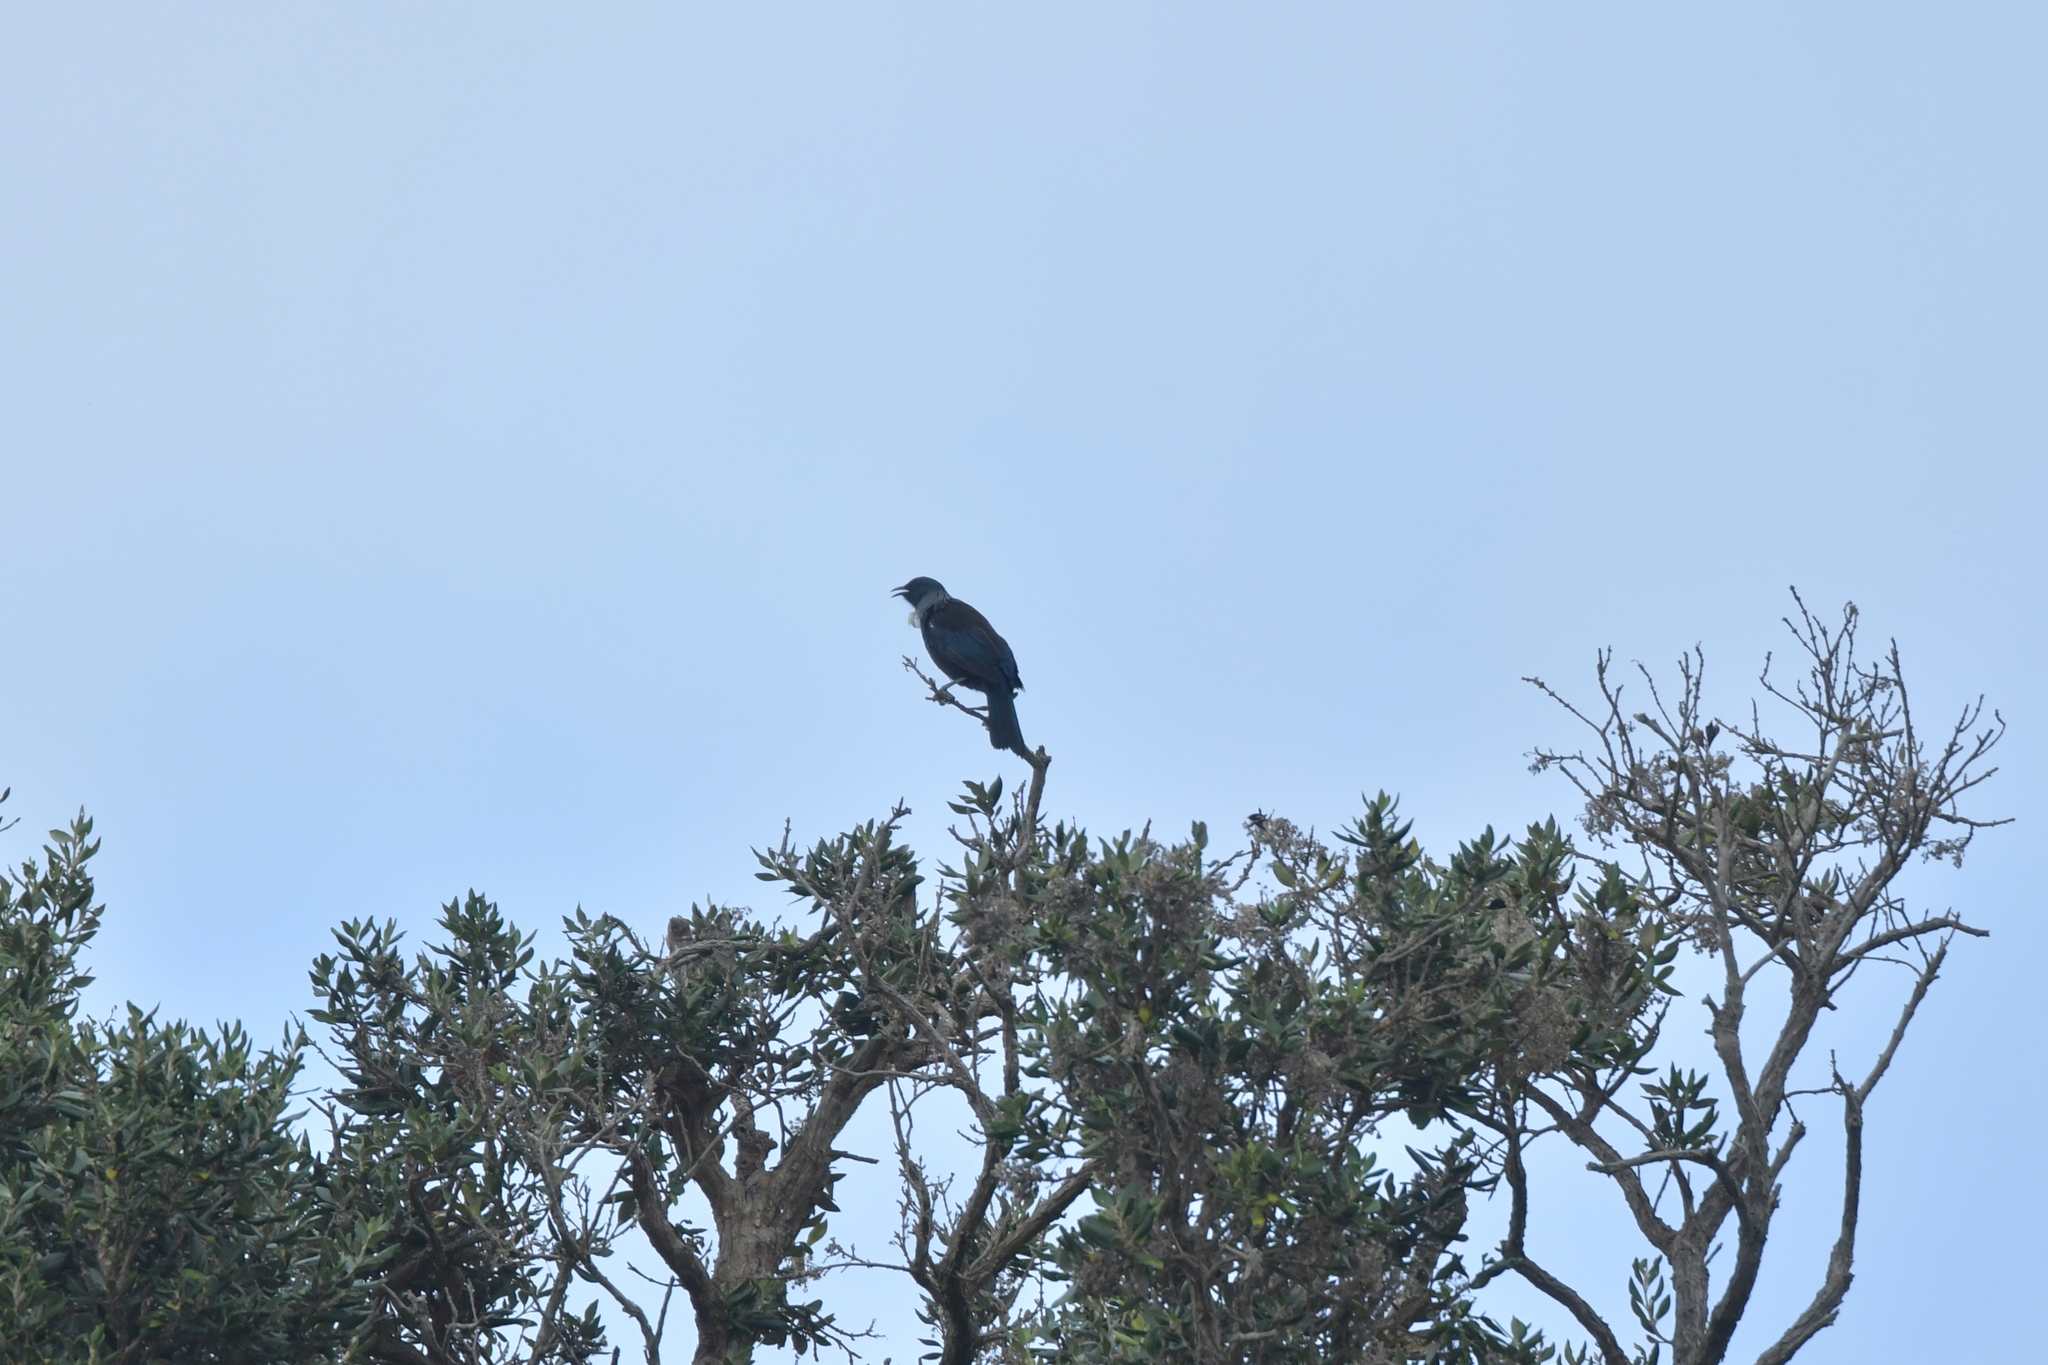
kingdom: Animalia
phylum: Chordata
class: Aves
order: Passeriformes
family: Meliphagidae
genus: Prosthemadera
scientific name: Prosthemadera novaeseelandiae
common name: Tui
